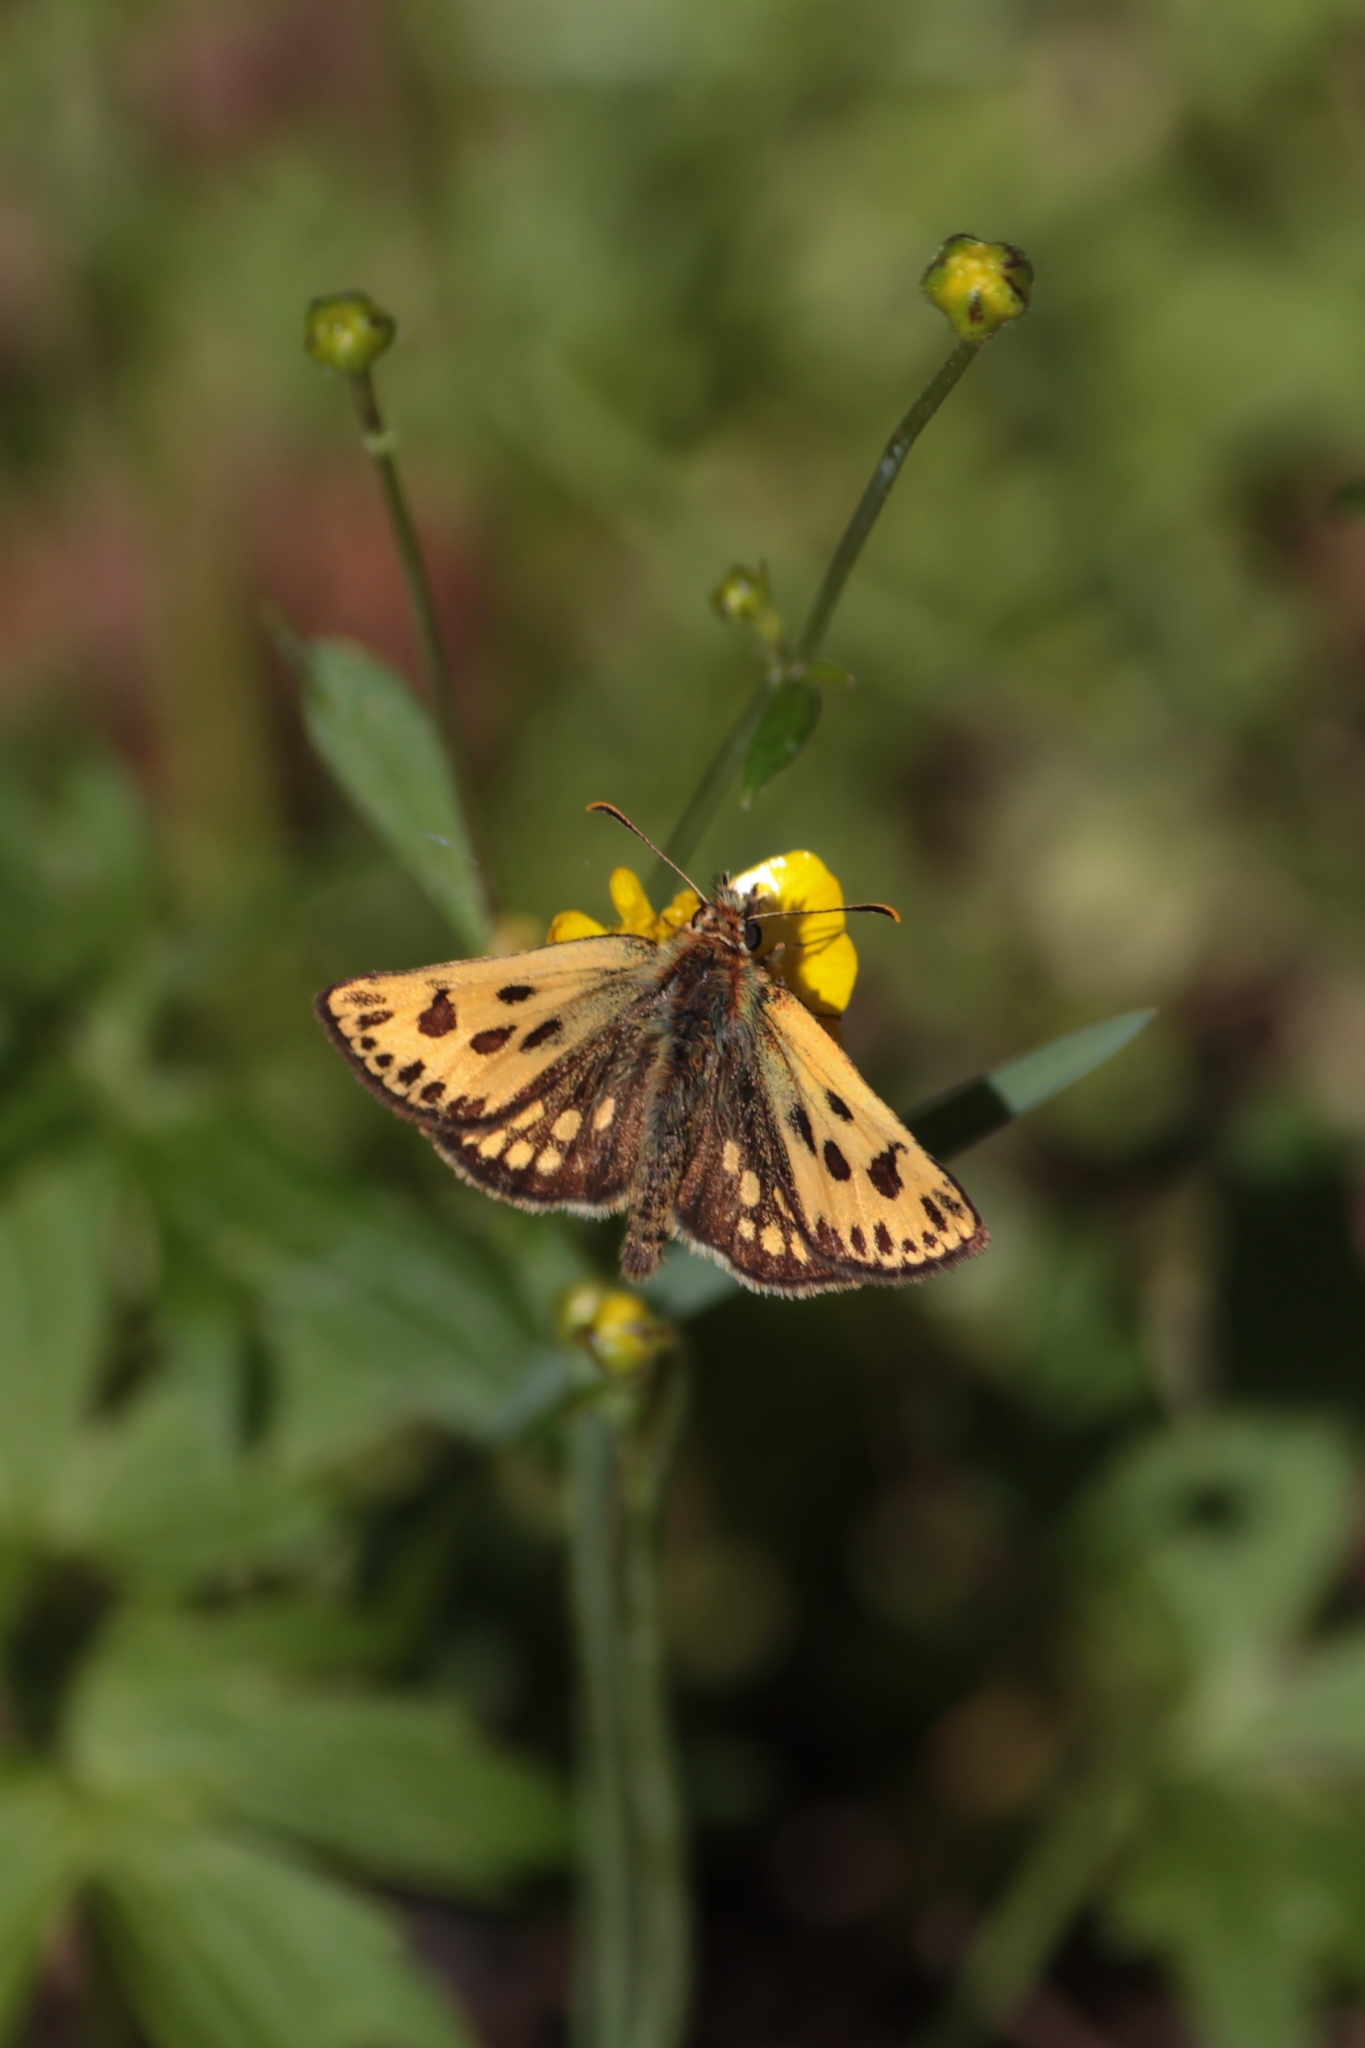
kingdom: Animalia
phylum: Arthropoda
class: Insecta
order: Lepidoptera
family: Hesperiidae
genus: Carterocephalus
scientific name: Carterocephalus silvicola
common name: Northern chequered skipper
